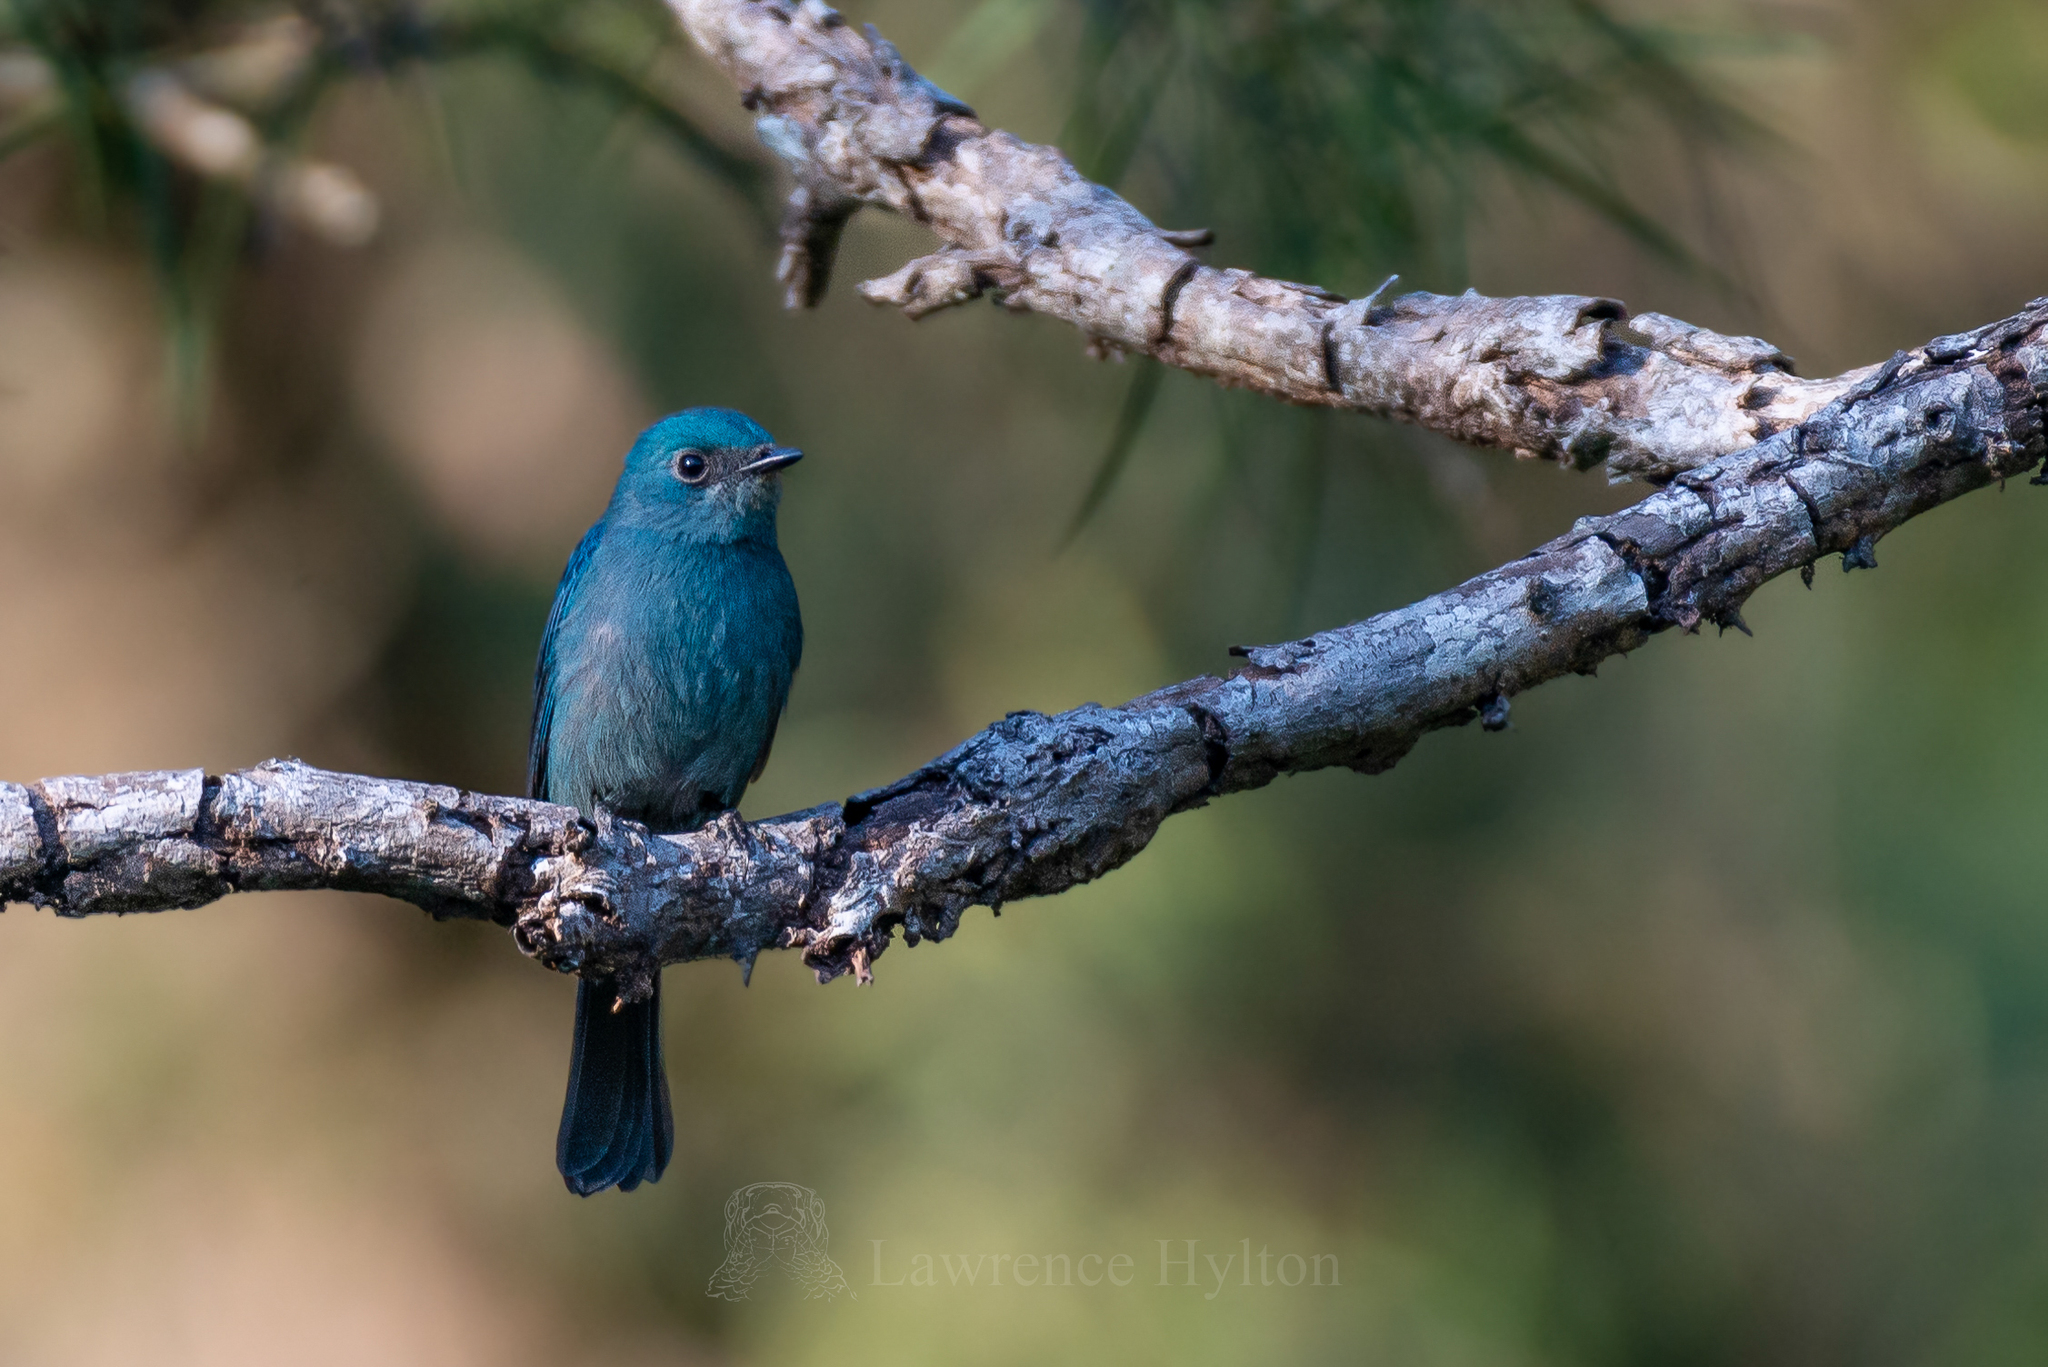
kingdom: Animalia
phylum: Chordata
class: Aves
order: Passeriformes
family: Muscicapidae
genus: Eumyias
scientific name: Eumyias thalassinus
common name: Verditer flycatcher
